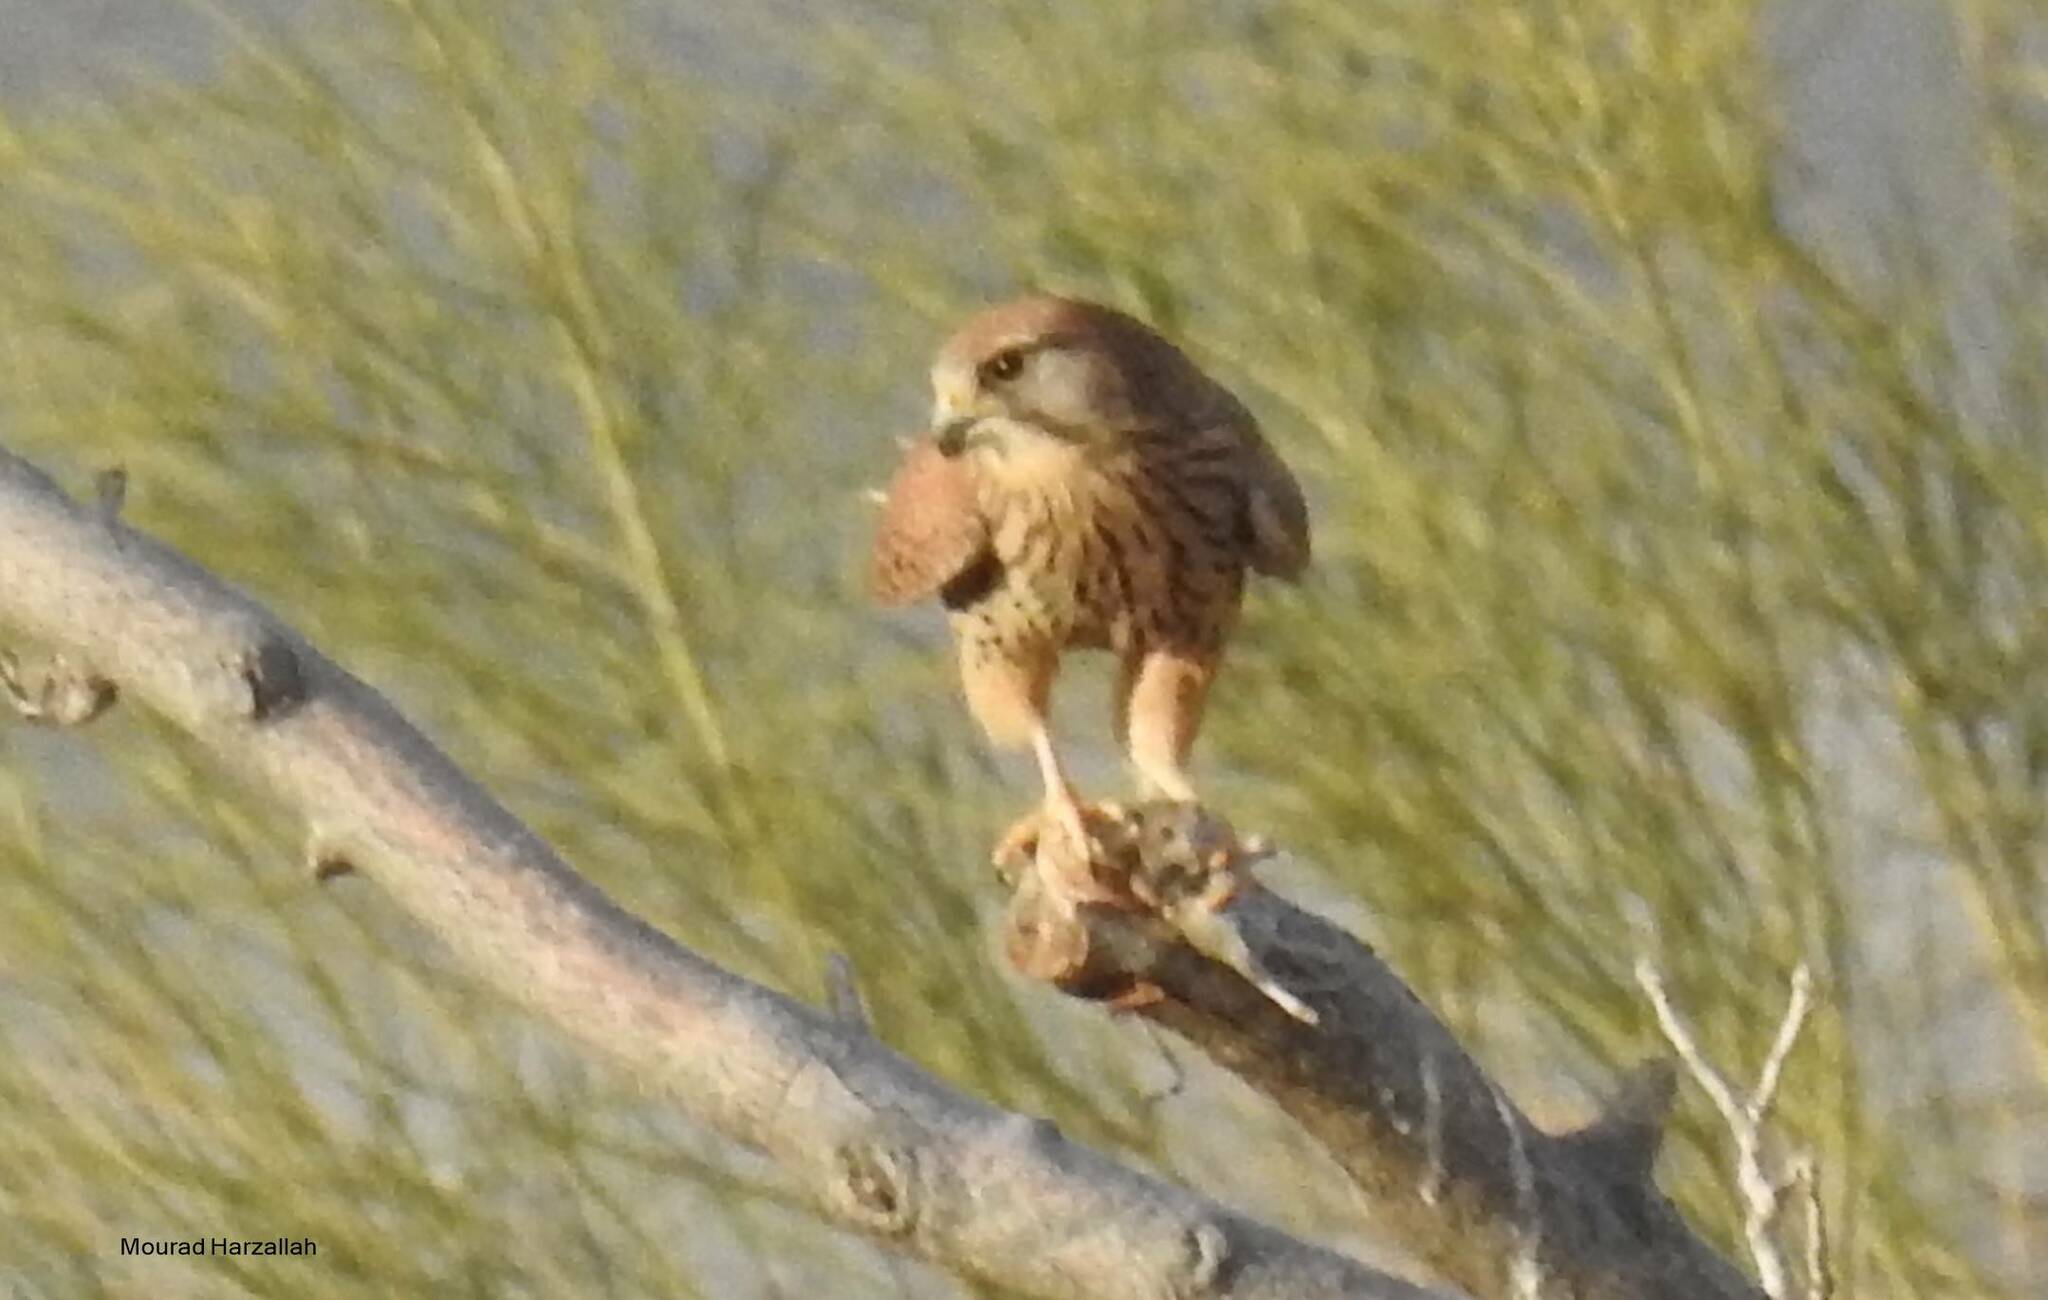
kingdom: Animalia
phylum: Chordata
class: Aves
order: Falconiformes
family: Falconidae
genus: Falco
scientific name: Falco tinnunculus
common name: Common kestrel
